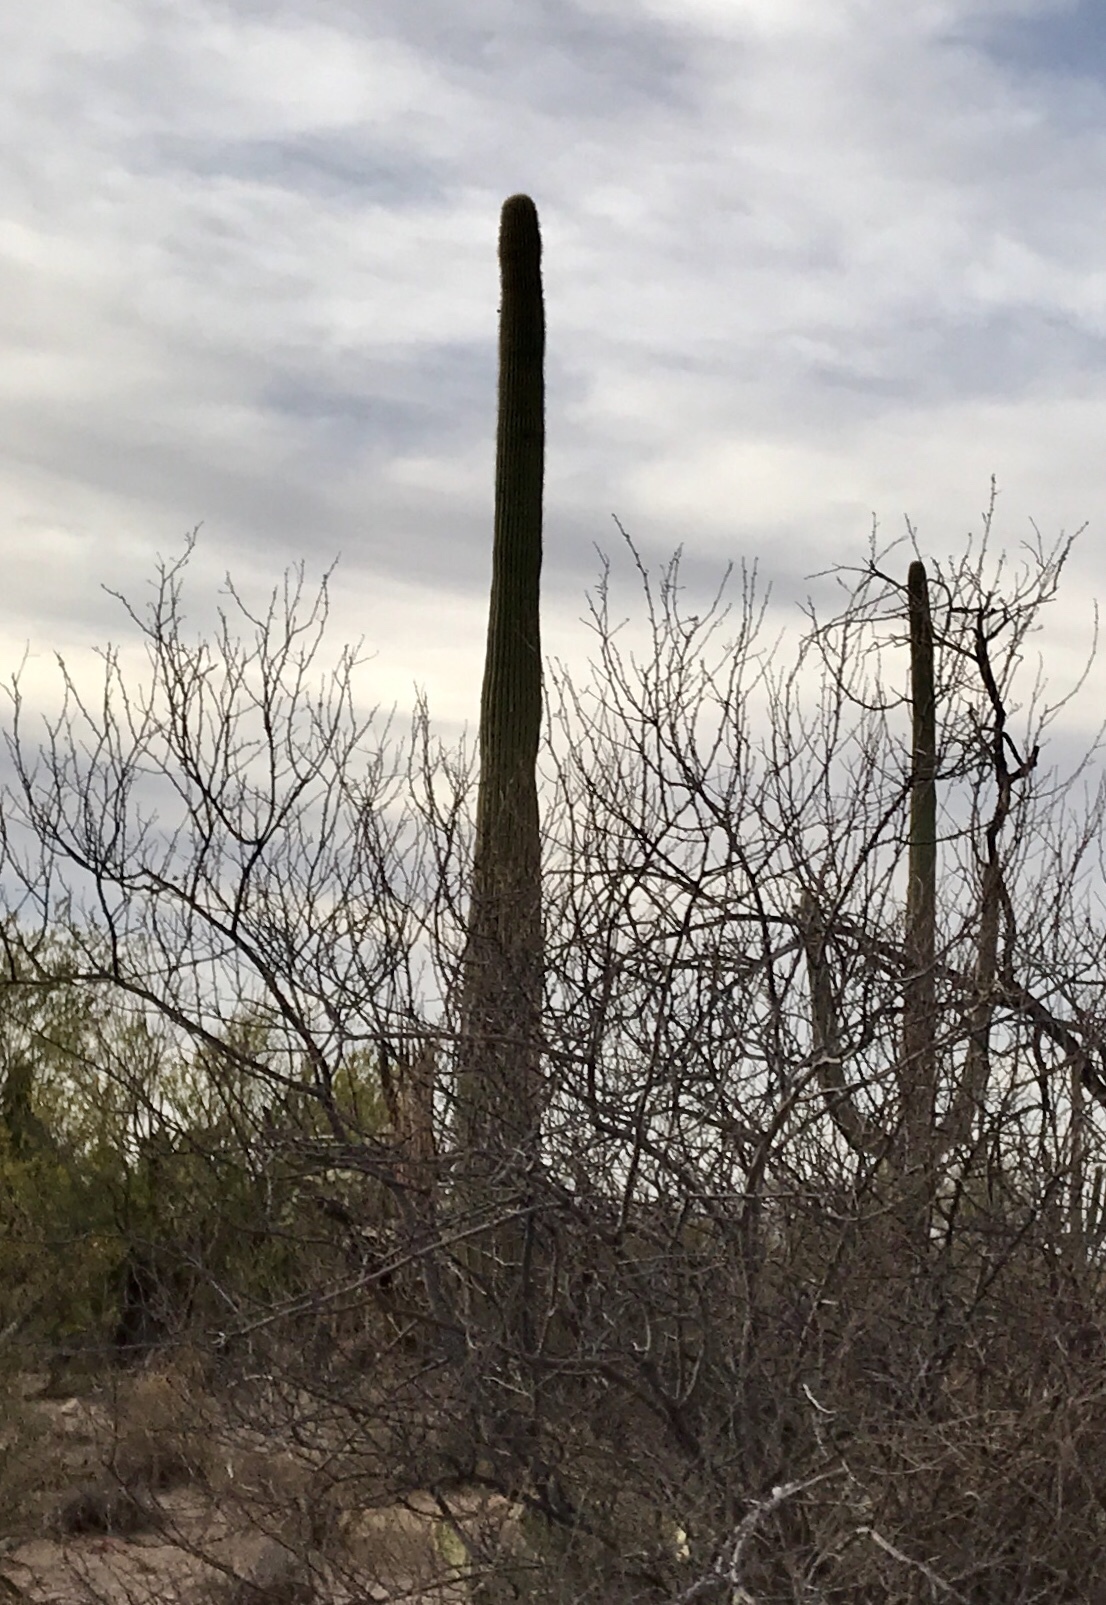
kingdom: Plantae
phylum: Tracheophyta
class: Magnoliopsida
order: Caryophyllales
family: Cactaceae
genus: Carnegiea
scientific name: Carnegiea gigantea
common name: Saguaro
